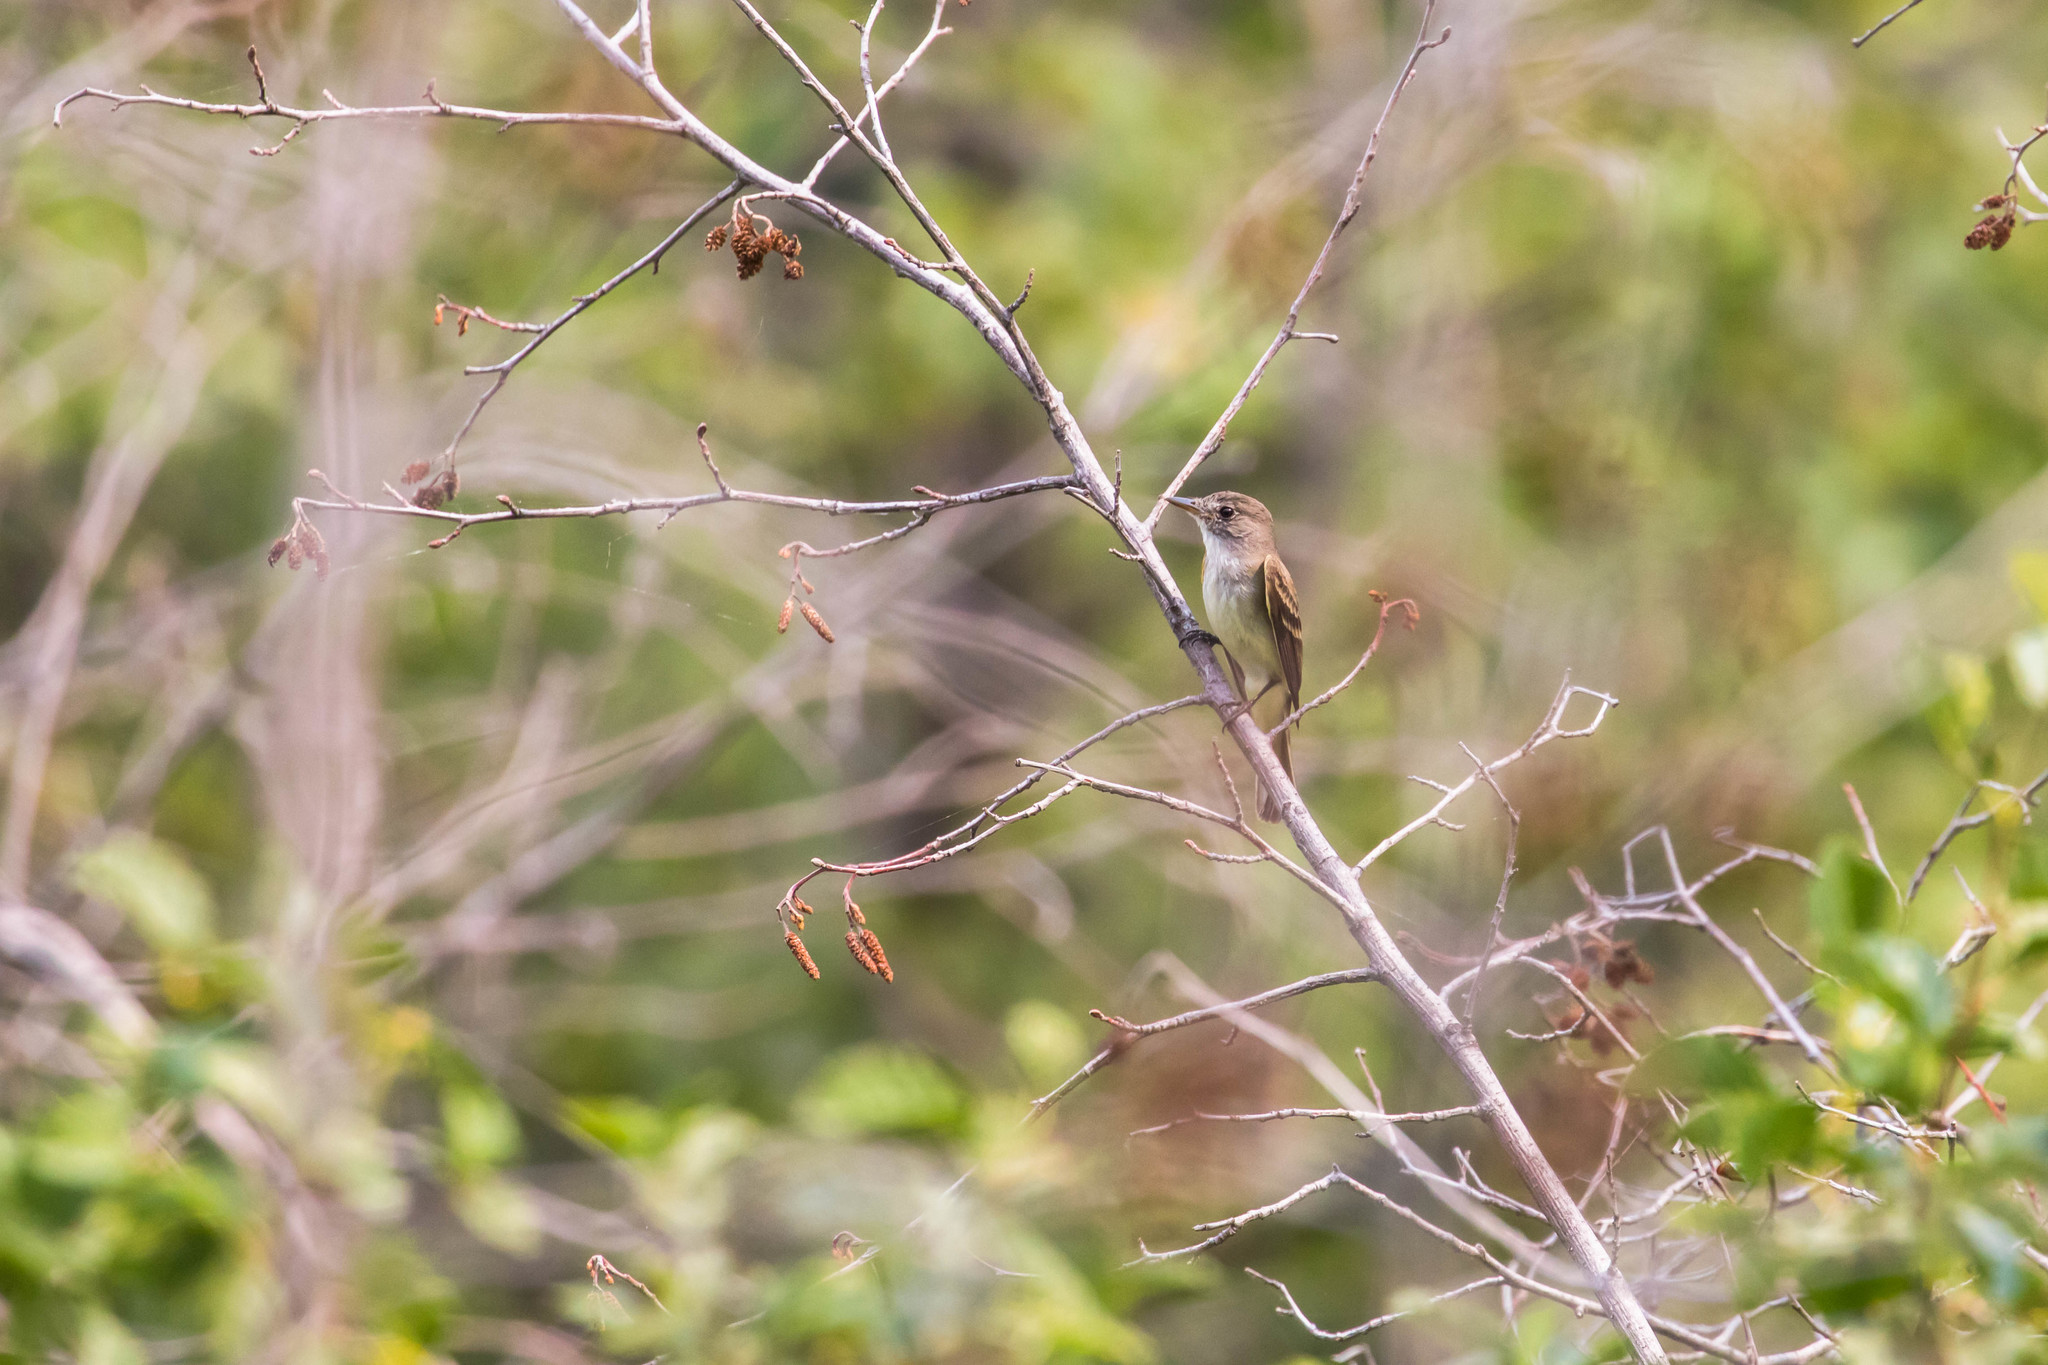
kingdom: Animalia
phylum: Chordata
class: Aves
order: Passeriformes
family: Tyrannidae
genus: Empidonax
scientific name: Empidonax traillii
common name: Willow flycatcher
